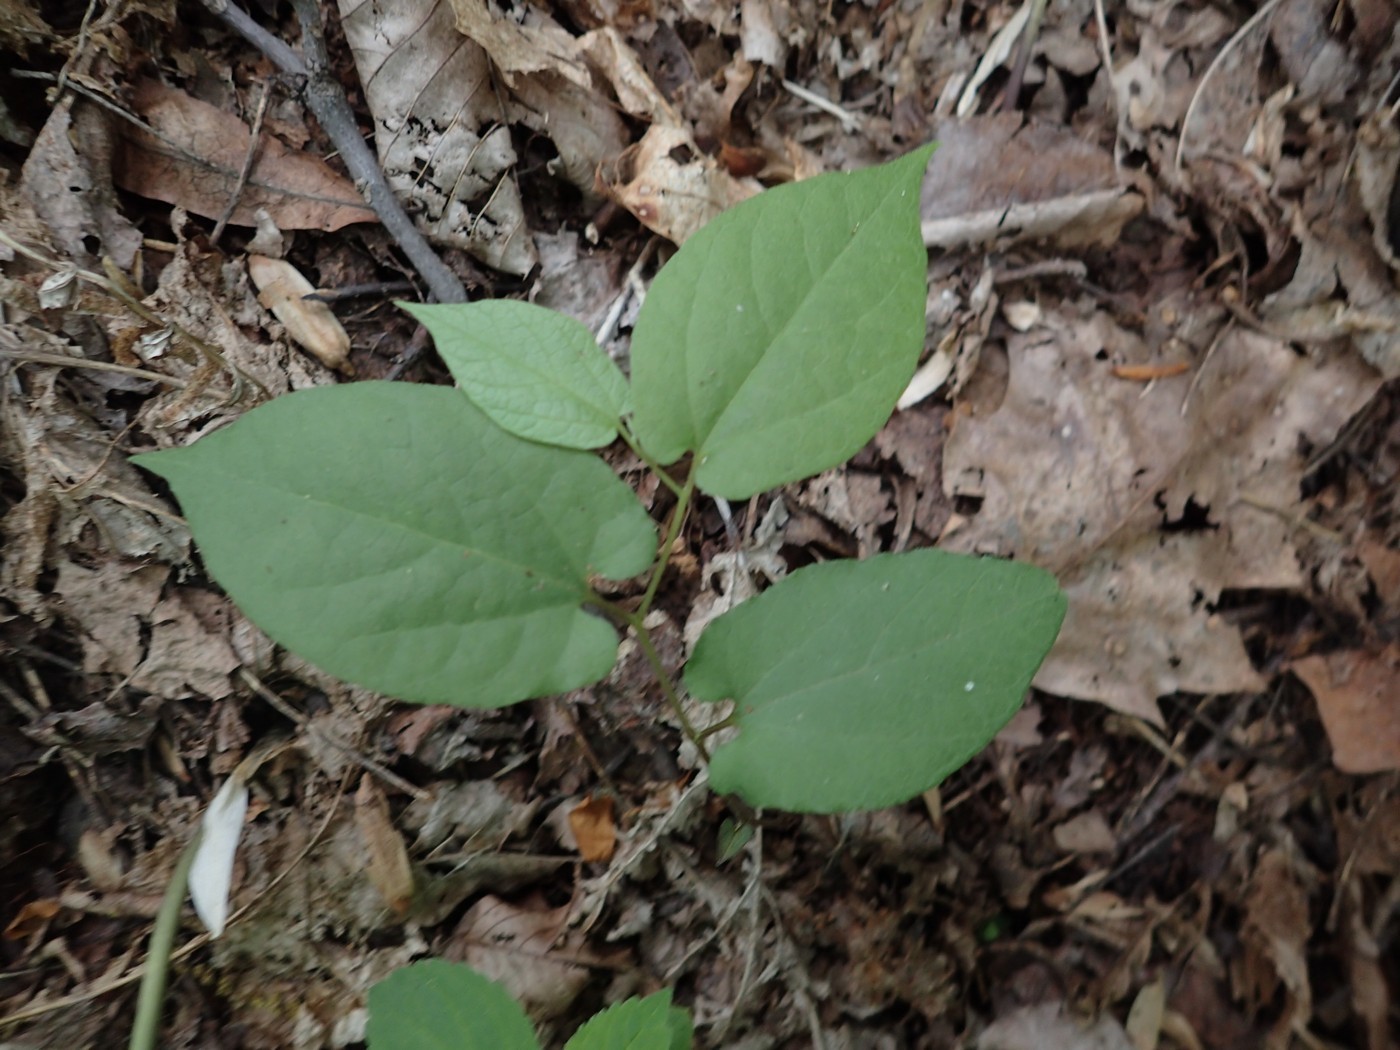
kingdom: Plantae
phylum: Tracheophyta
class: Magnoliopsida
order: Piperales
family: Aristolochiaceae
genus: Endodeca
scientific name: Endodeca serpentaria
